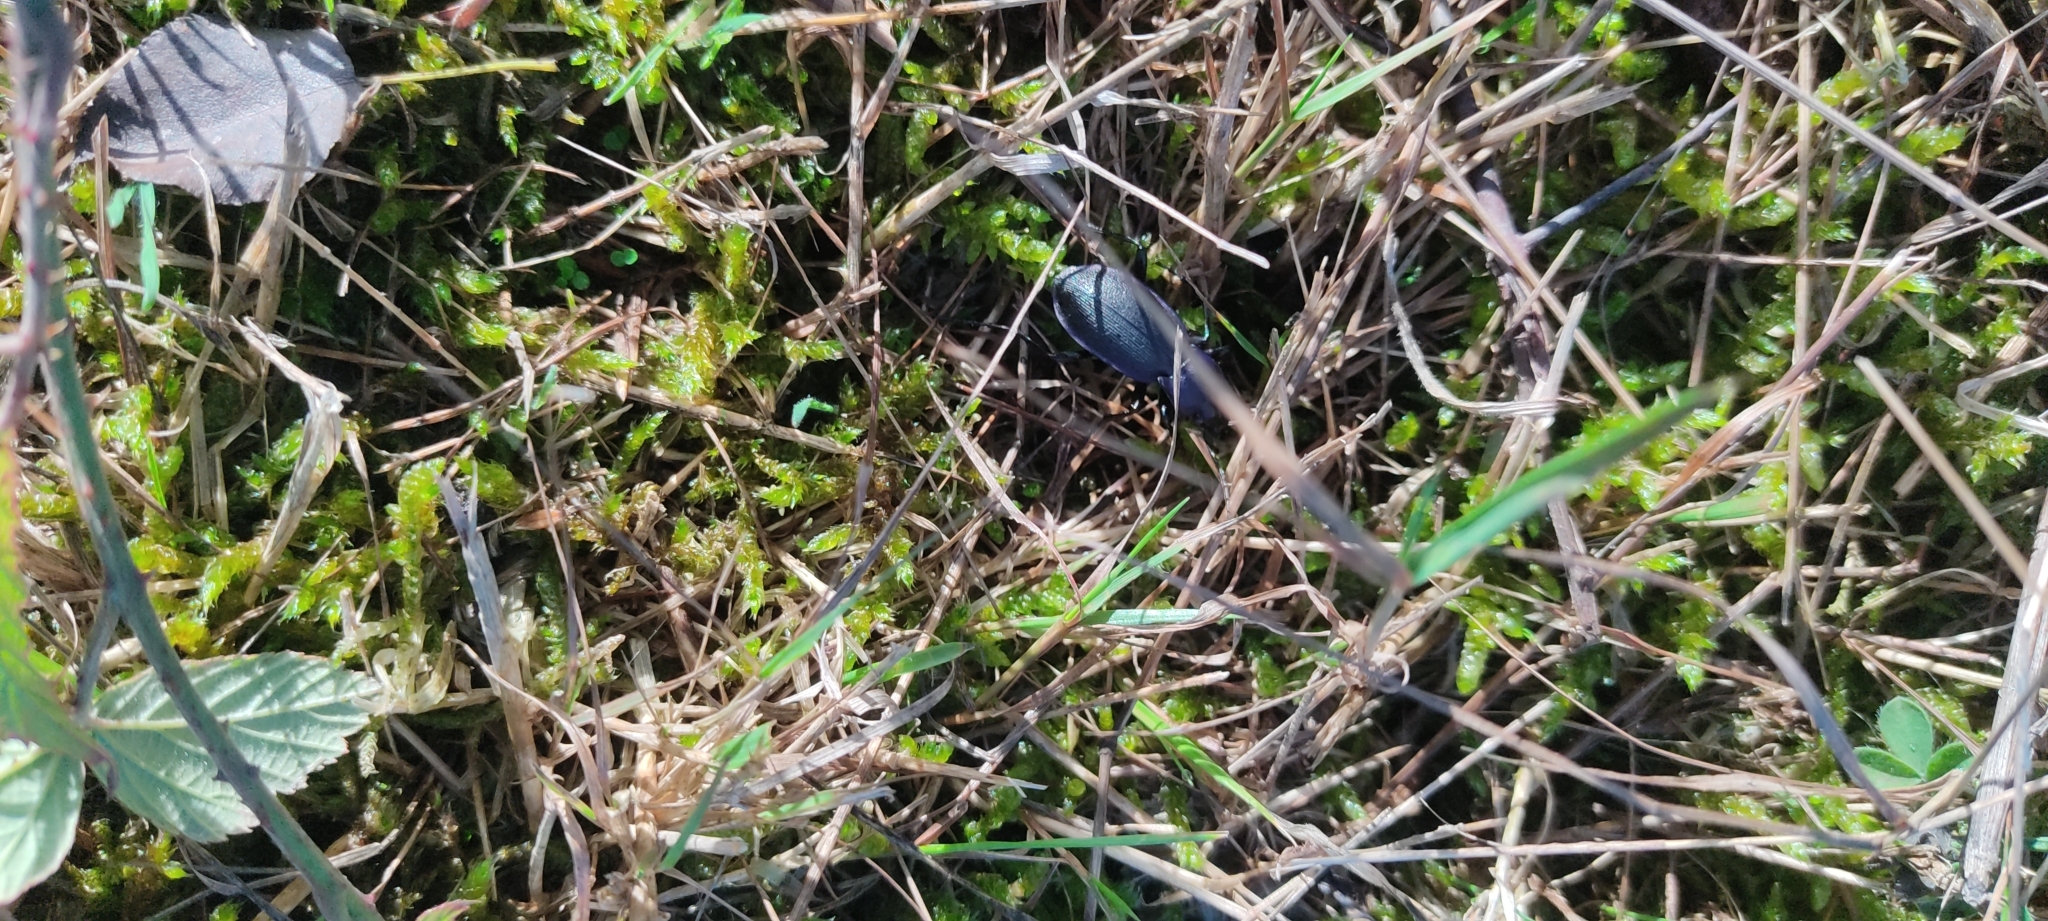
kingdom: Animalia
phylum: Arthropoda
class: Insecta
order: Coleoptera
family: Carabidae
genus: Carabus
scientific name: Carabus problematicus
